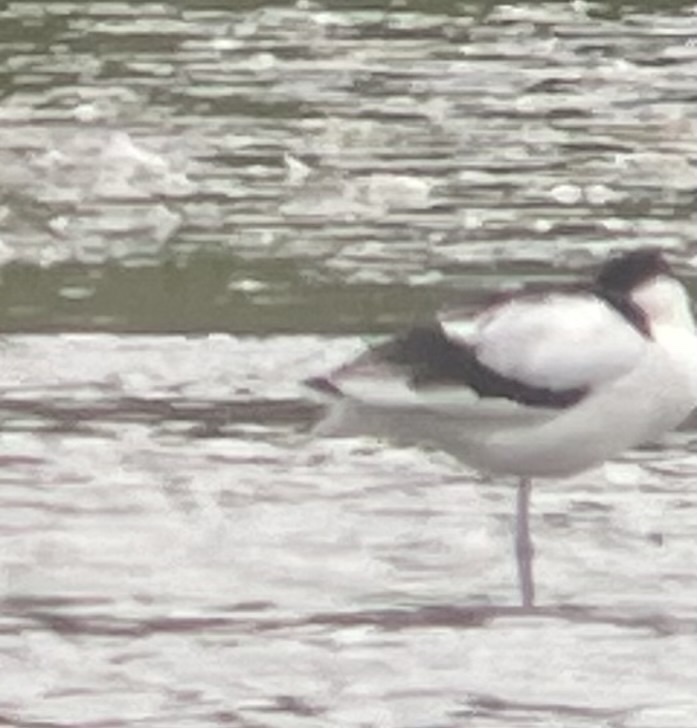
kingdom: Animalia
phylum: Chordata
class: Aves
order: Charadriiformes
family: Recurvirostridae
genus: Recurvirostra
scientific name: Recurvirostra avosetta
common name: Pied avocet
